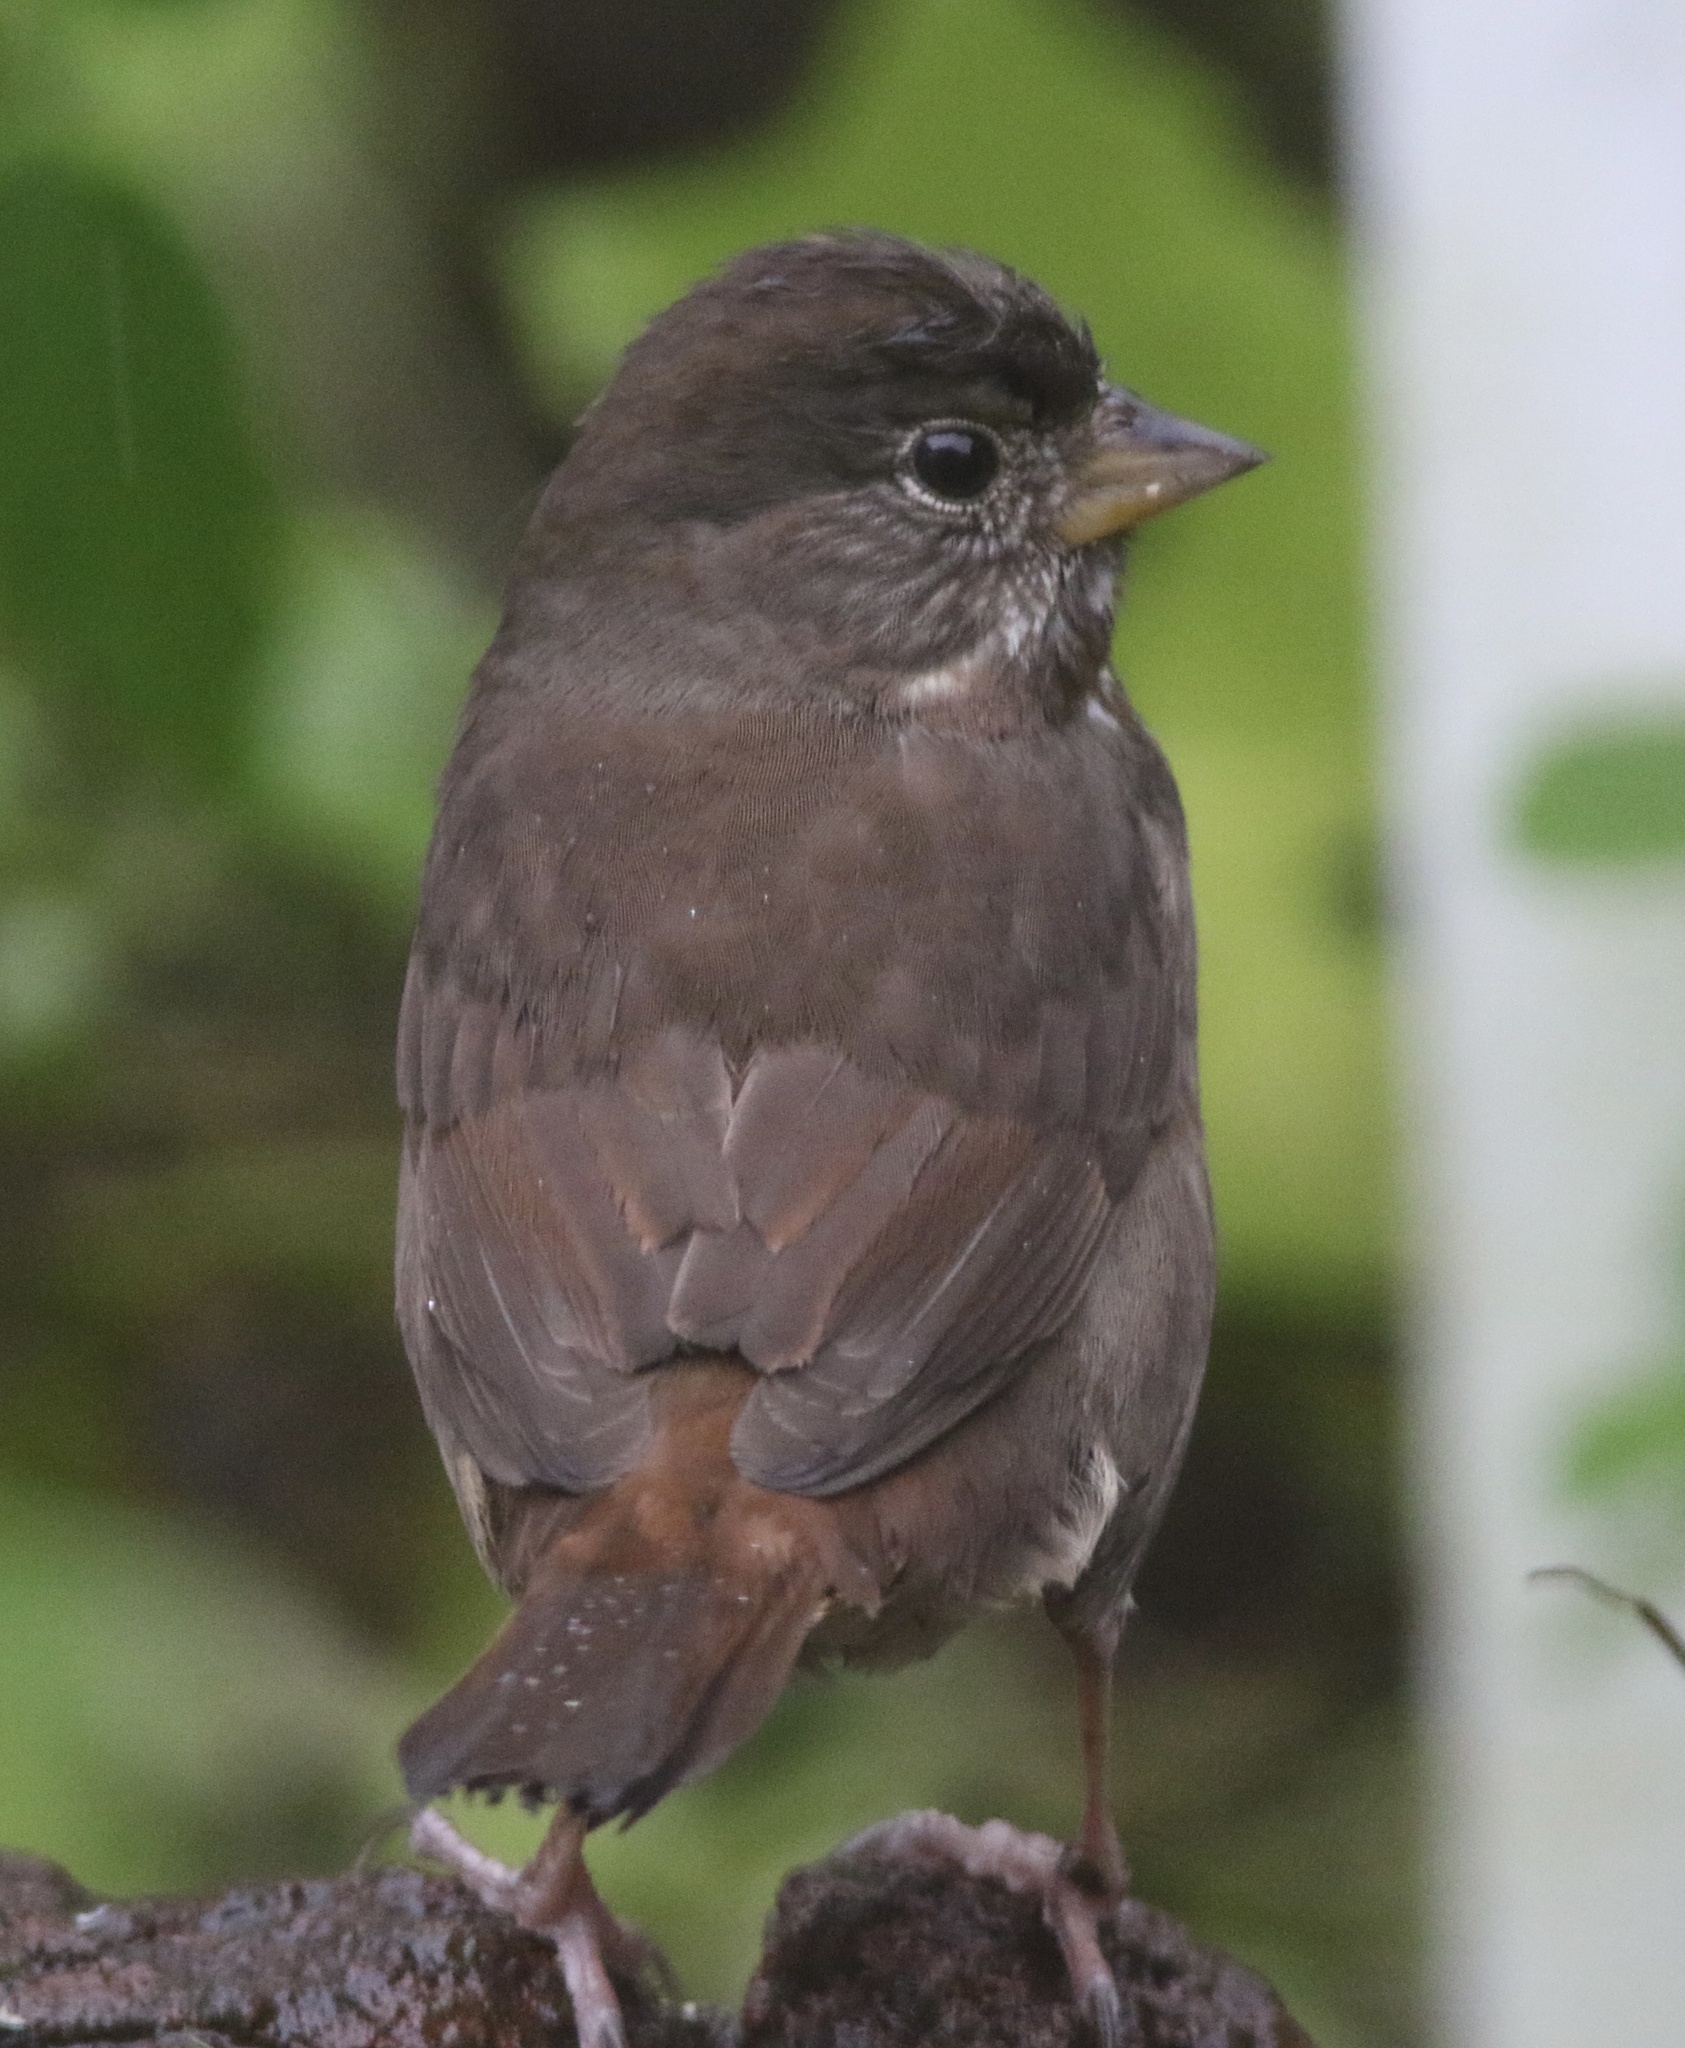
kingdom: Animalia
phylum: Chordata
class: Aves
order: Passeriformes
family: Passerellidae
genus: Passerella
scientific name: Passerella iliaca
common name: Fox sparrow
